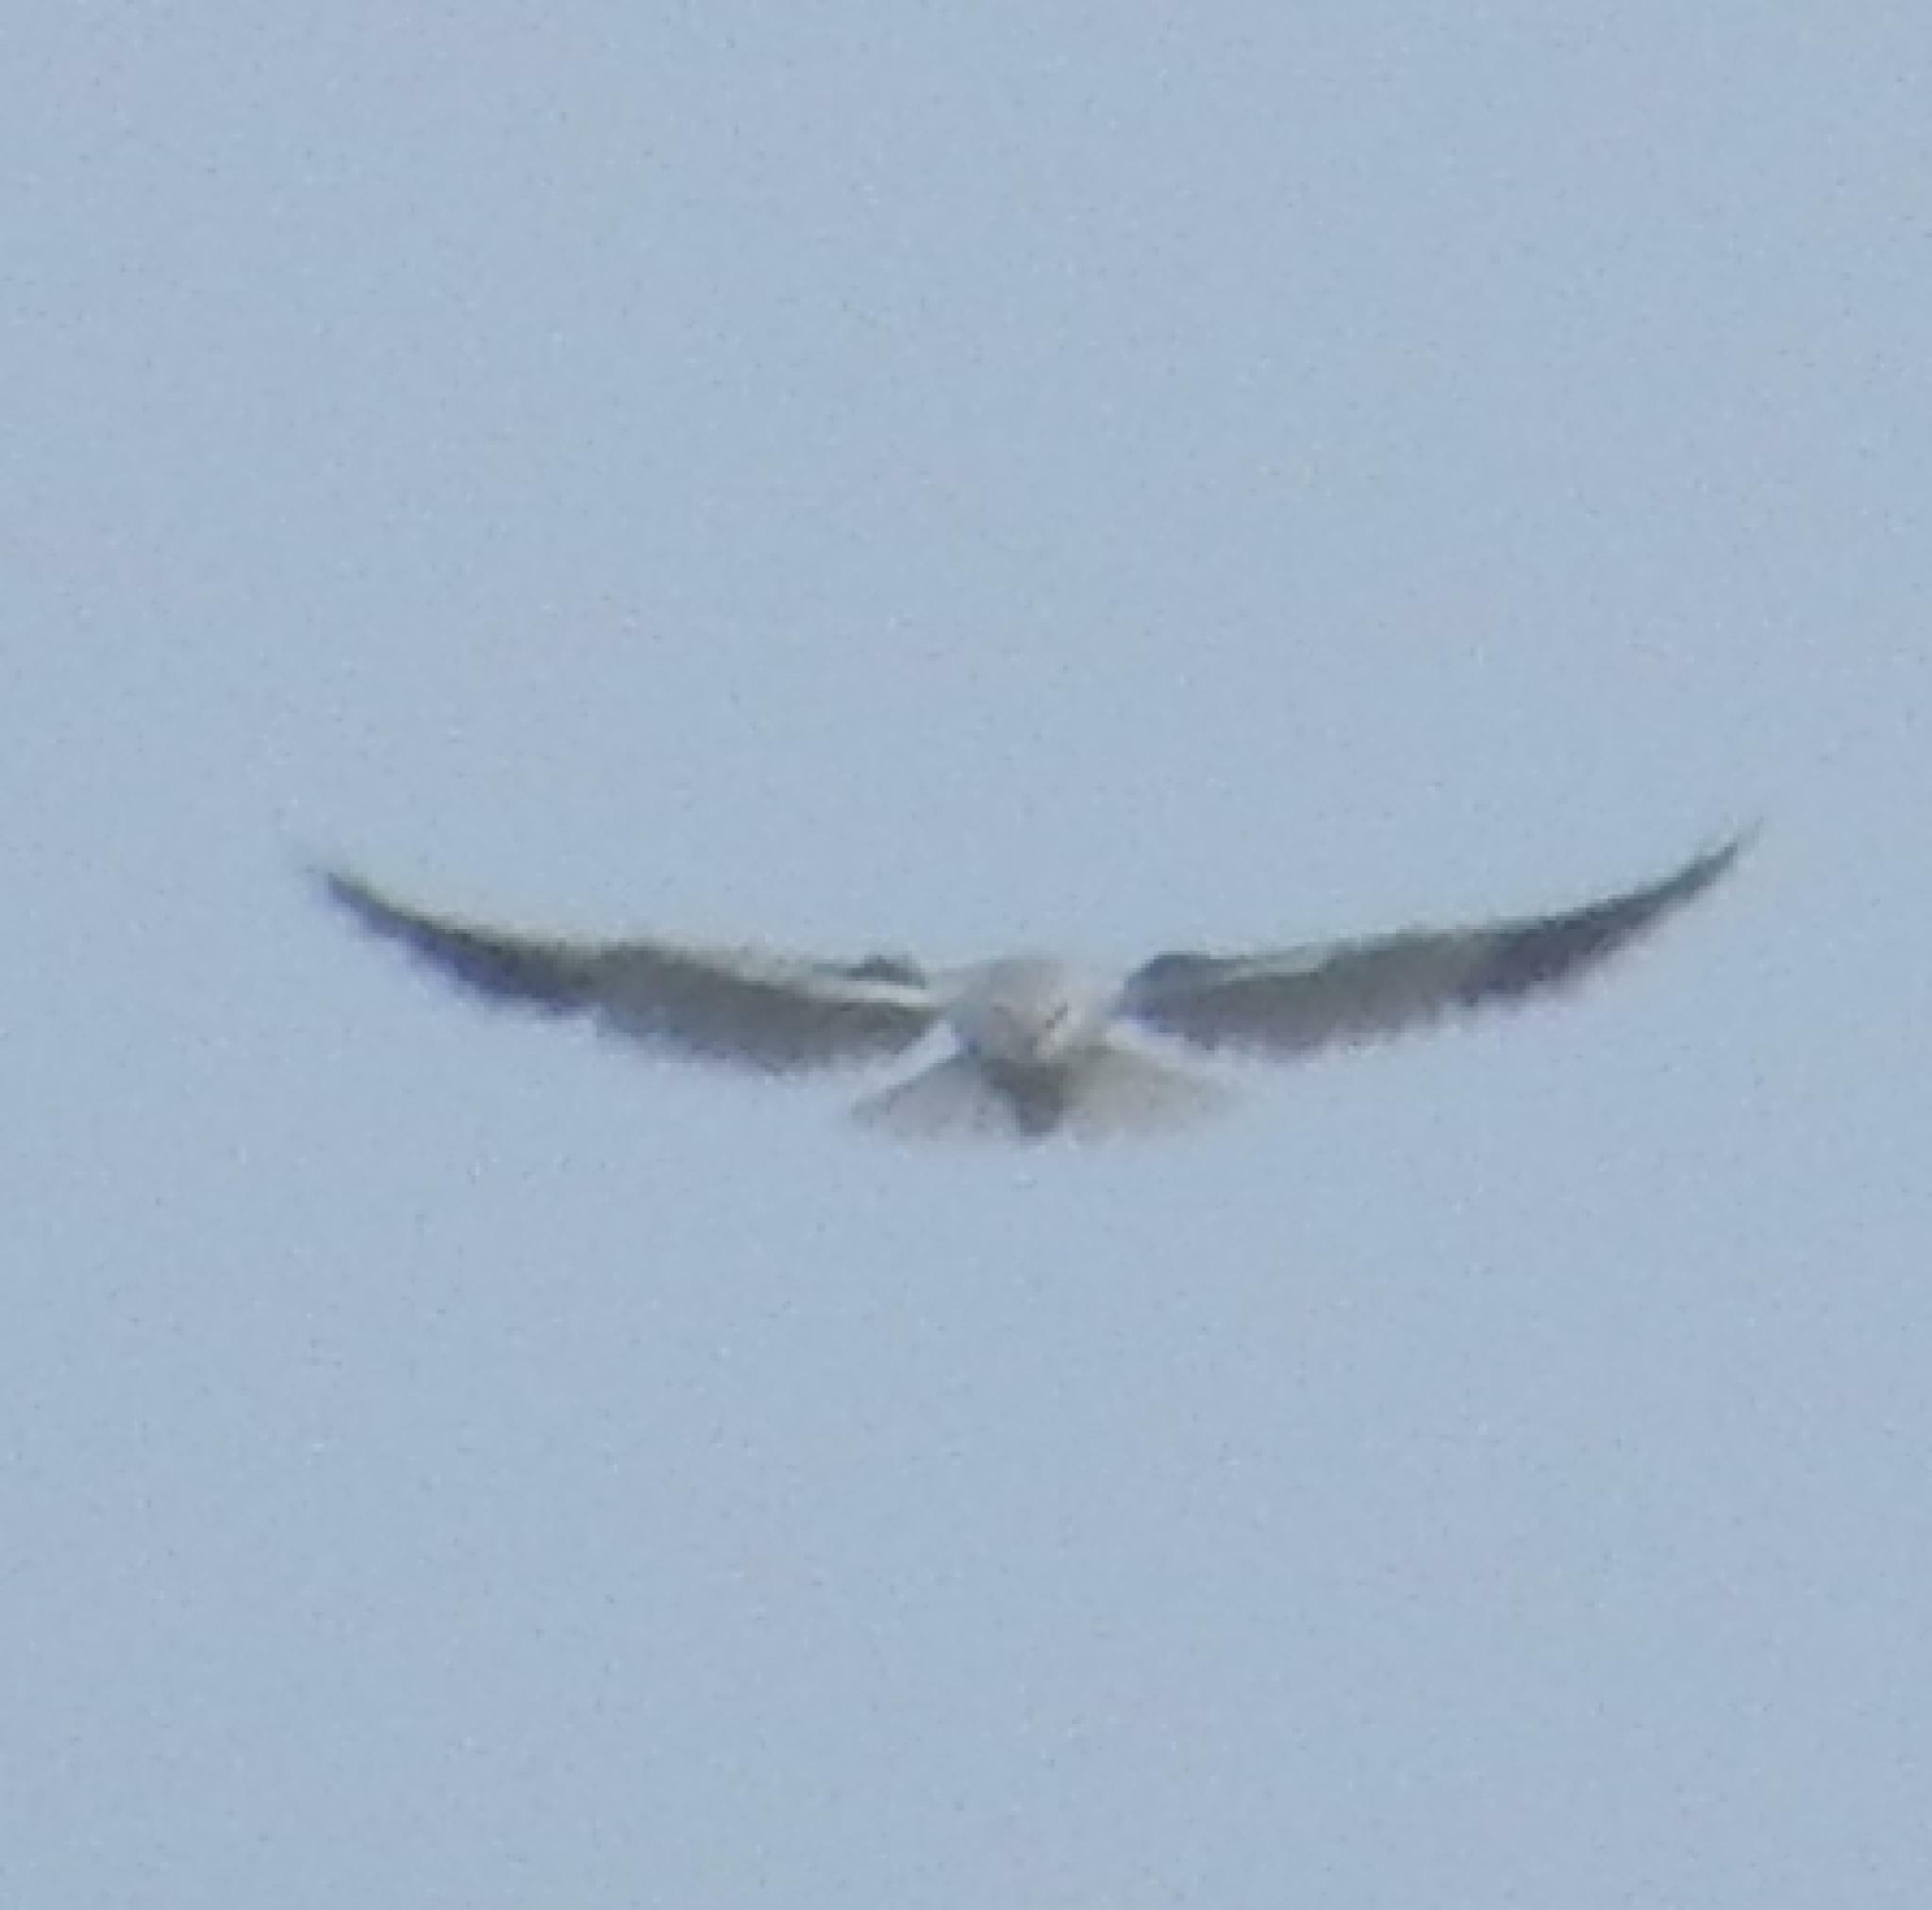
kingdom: Animalia
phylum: Chordata
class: Aves
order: Accipitriformes
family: Accipitridae
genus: Elanus
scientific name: Elanus caeruleus
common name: Black-winged kite
